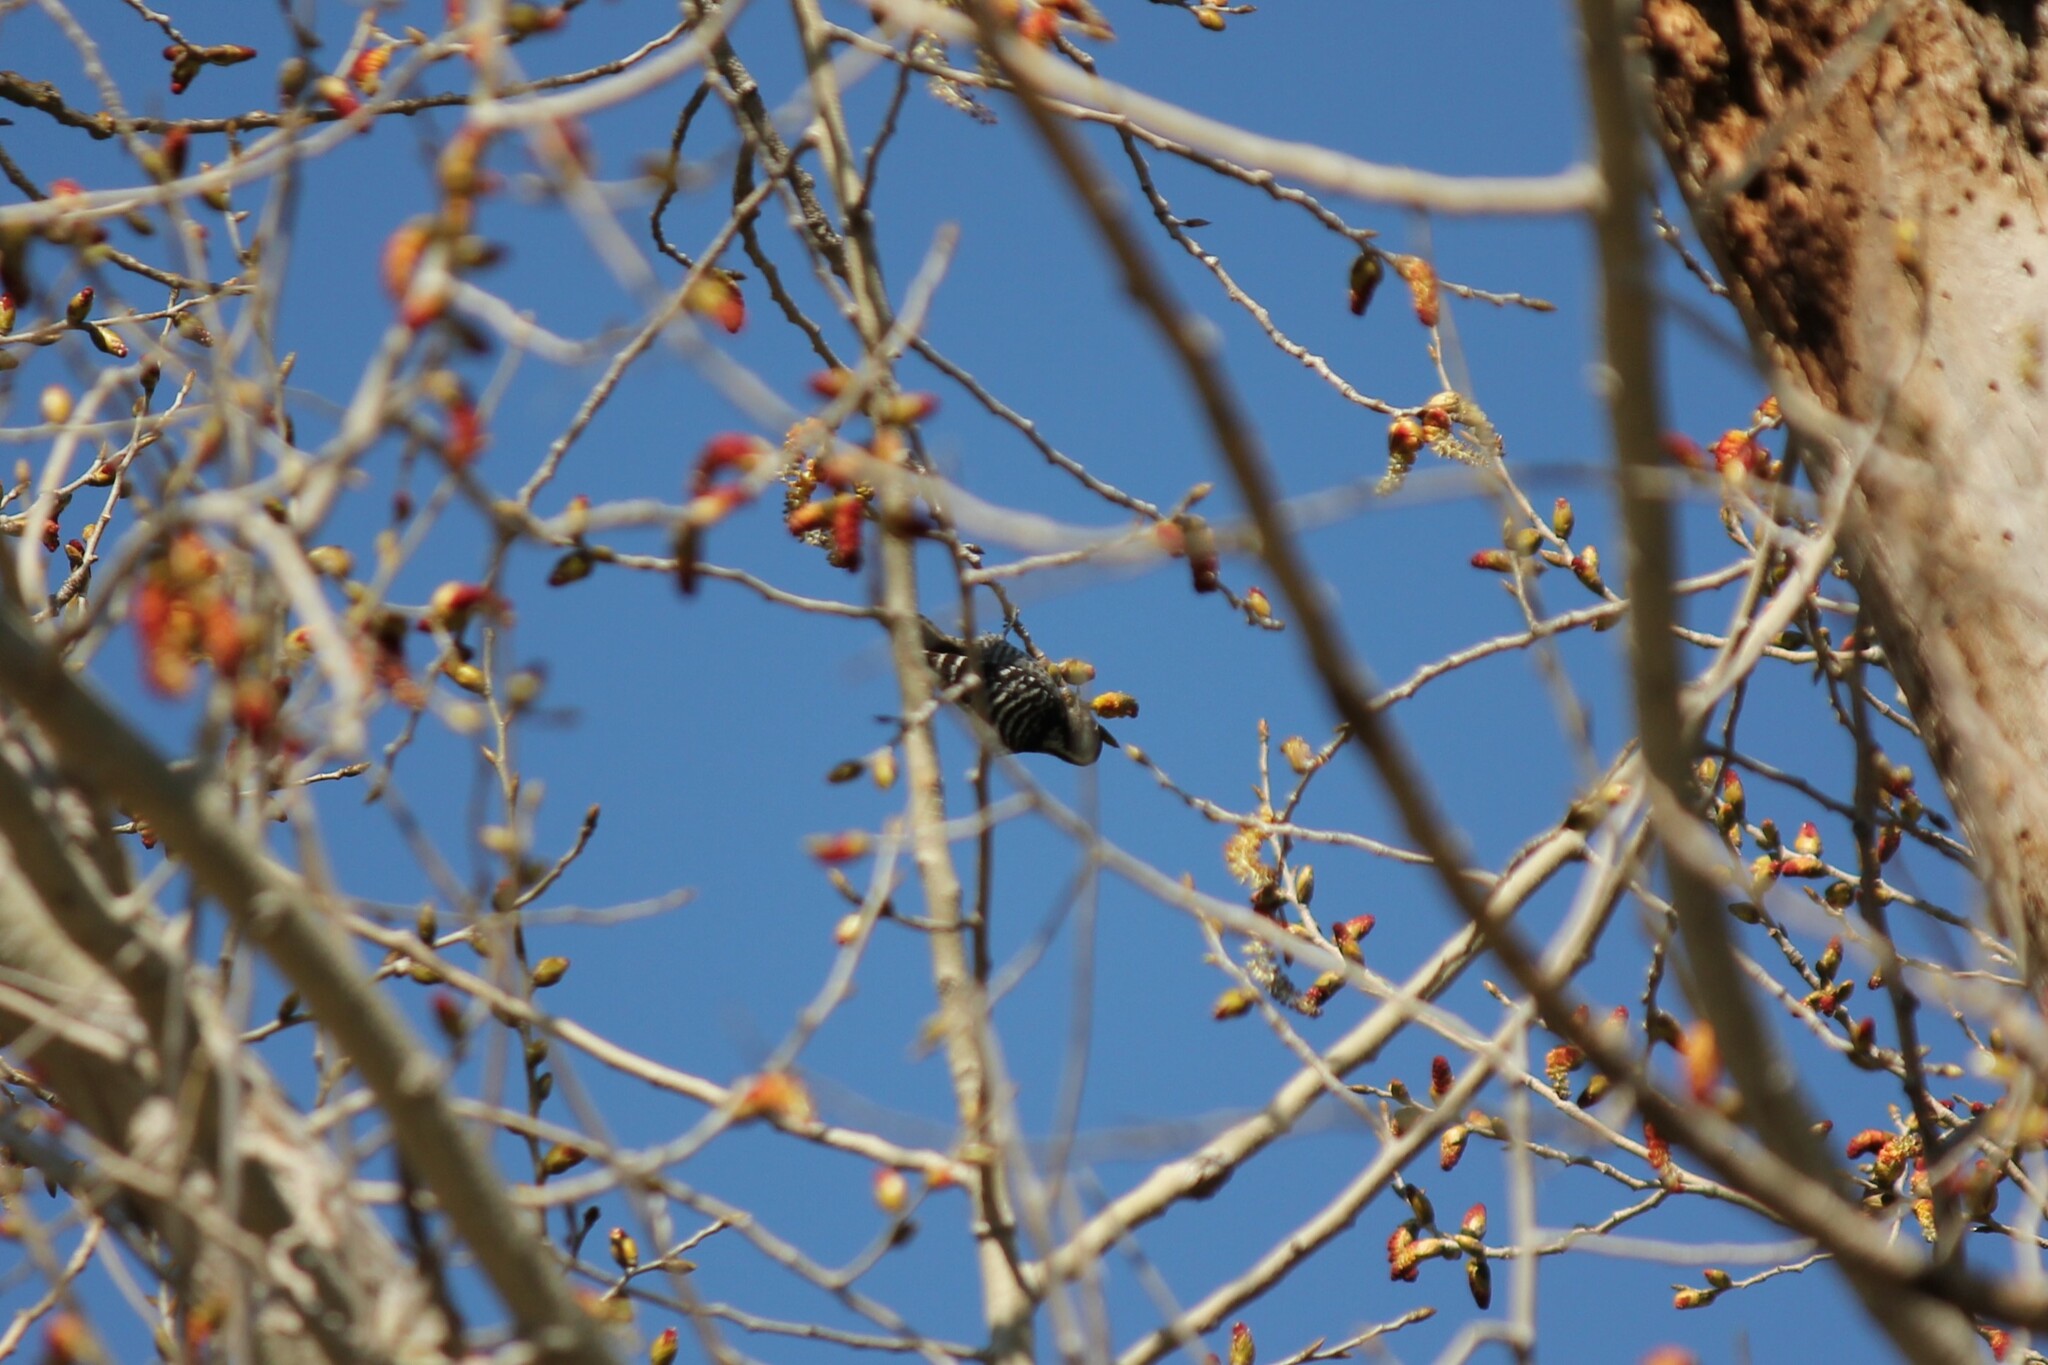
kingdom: Animalia
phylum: Chordata
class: Aves
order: Piciformes
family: Picidae
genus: Dryobates
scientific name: Dryobates nuttallii
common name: Nuttall's woodpecker
